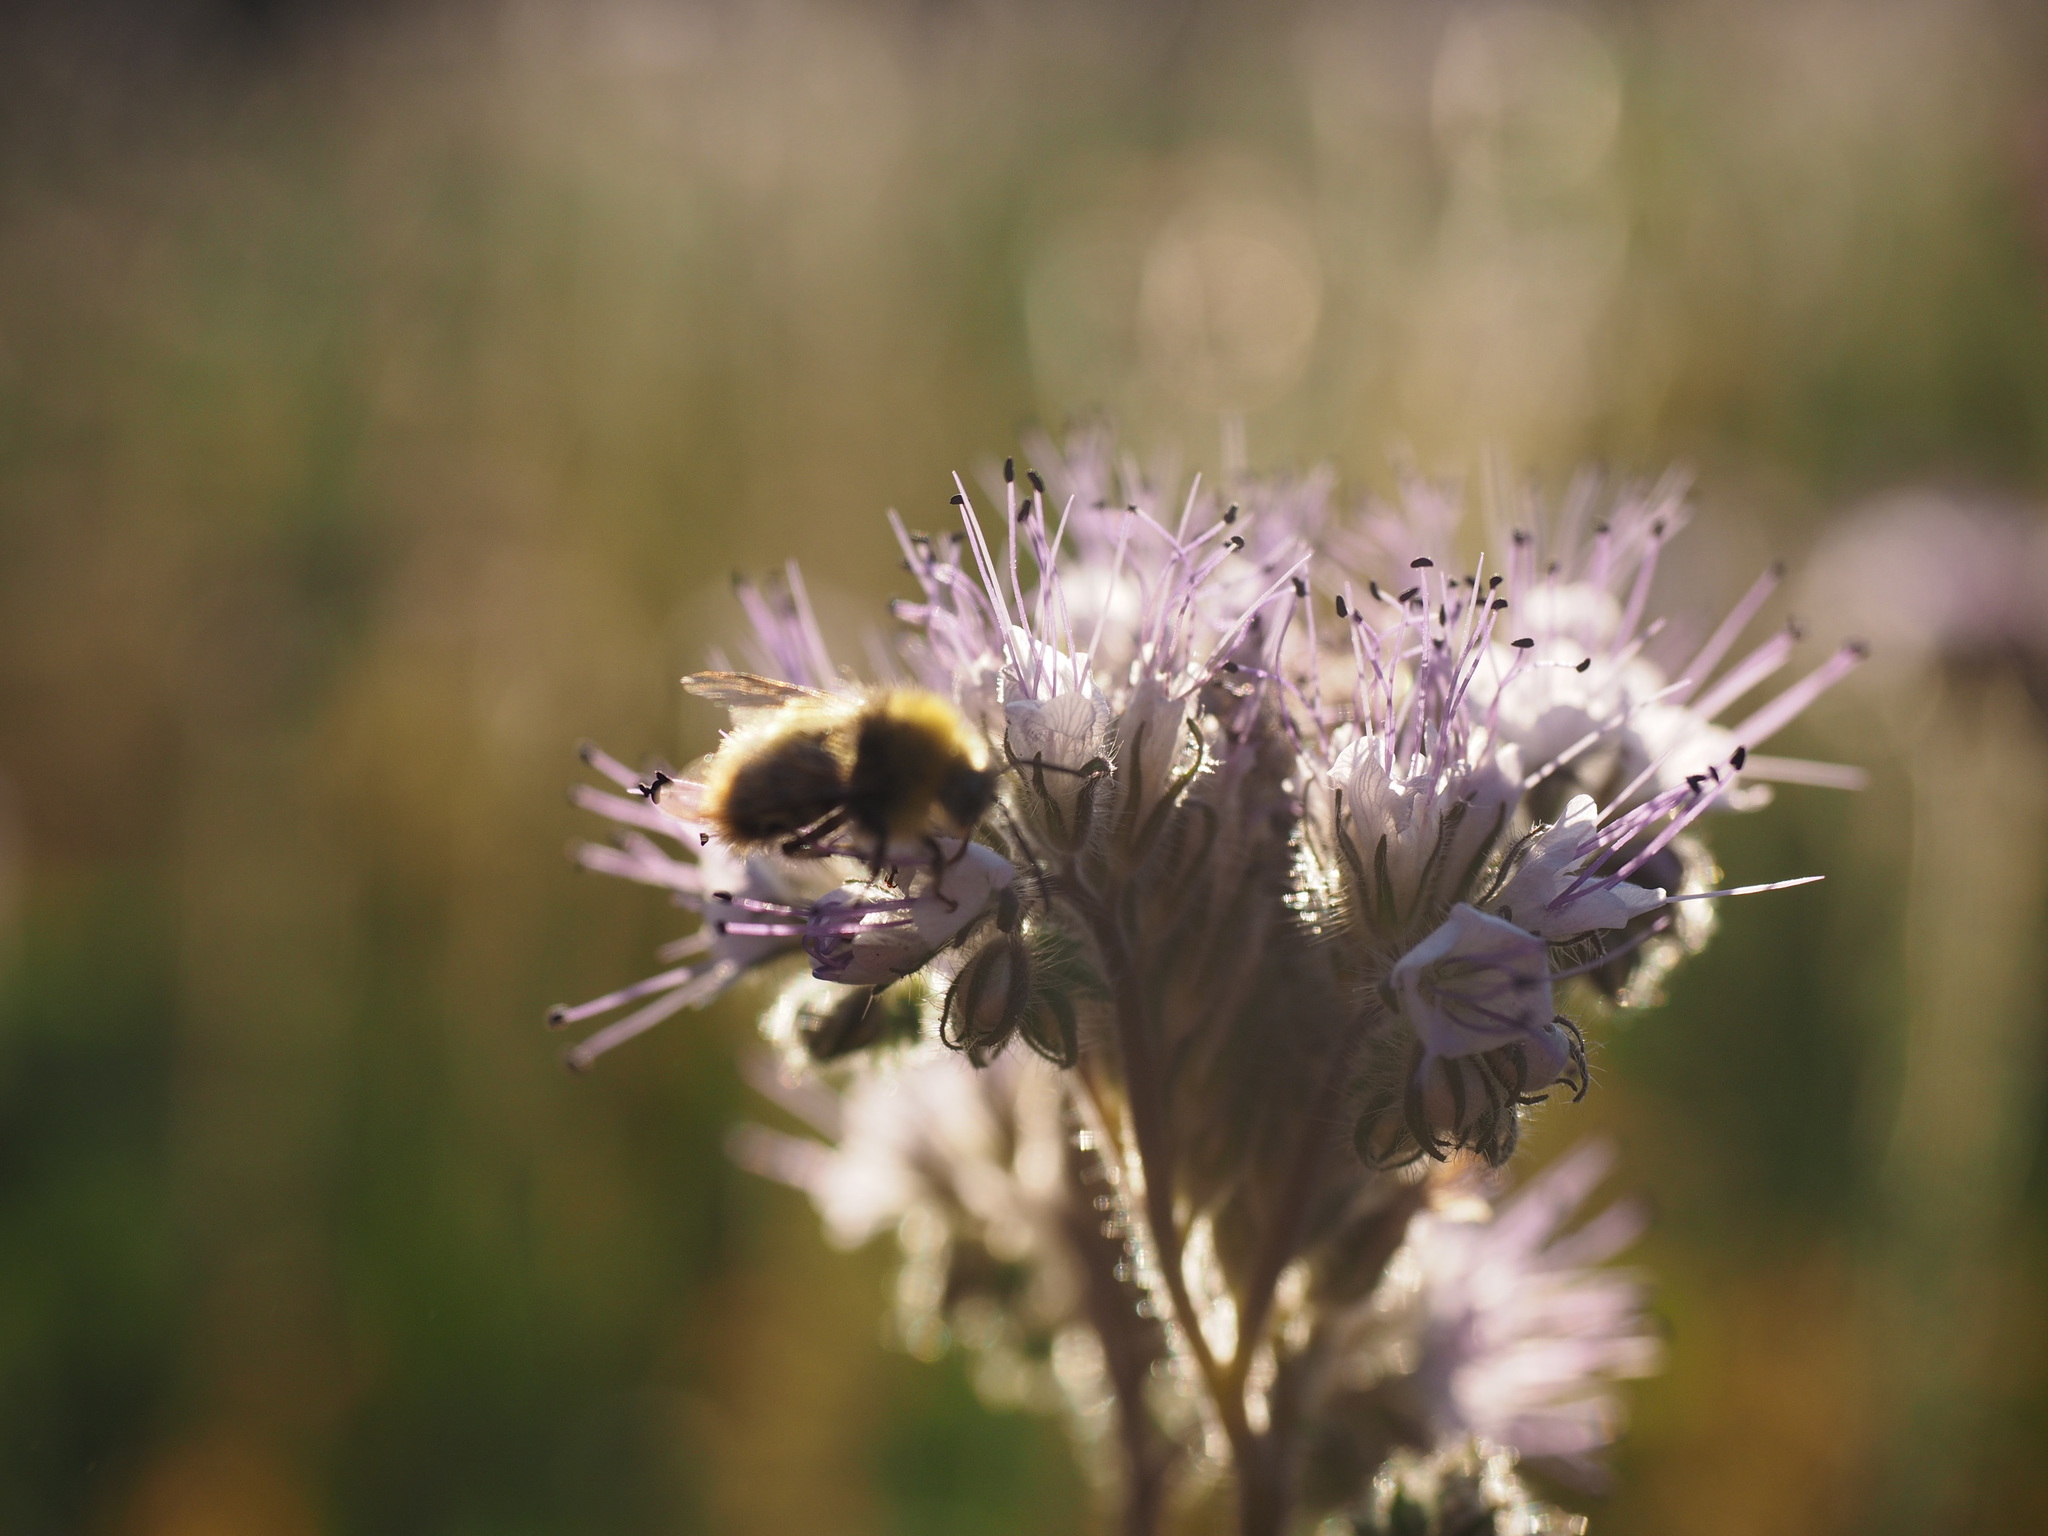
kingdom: Plantae
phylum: Tracheophyta
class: Magnoliopsida
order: Boraginales
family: Hydrophyllaceae
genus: Phacelia
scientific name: Phacelia tanacetifolia
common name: Phacelia
